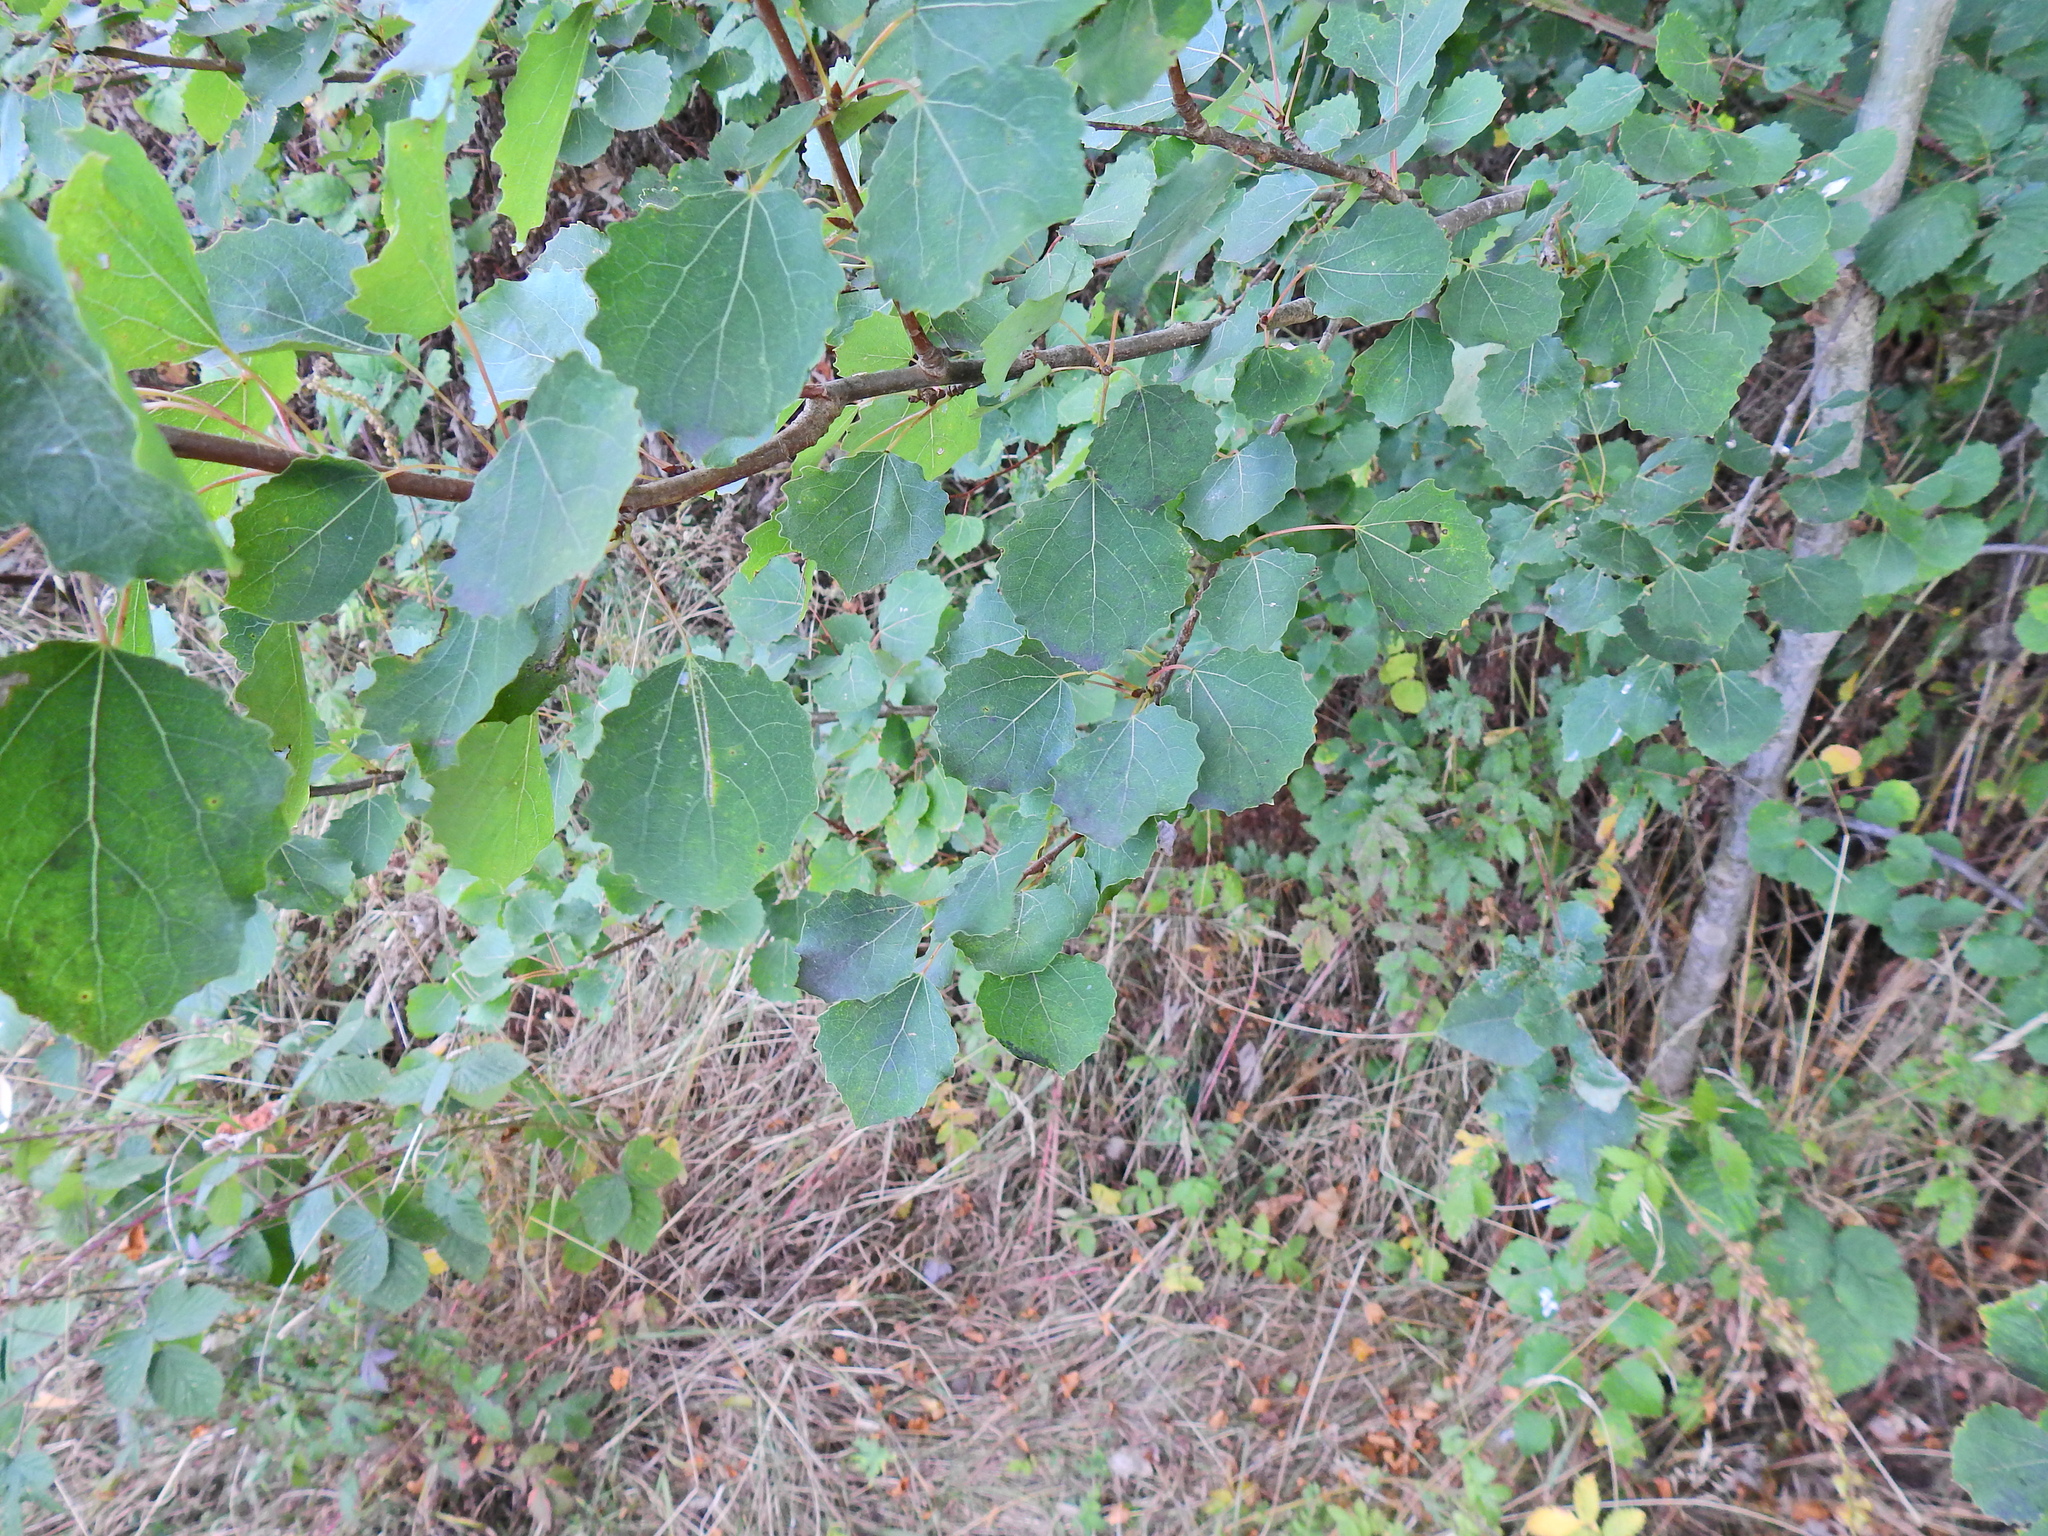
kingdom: Plantae
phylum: Tracheophyta
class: Magnoliopsida
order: Malpighiales
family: Salicaceae
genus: Populus
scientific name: Populus tremula
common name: European aspen
